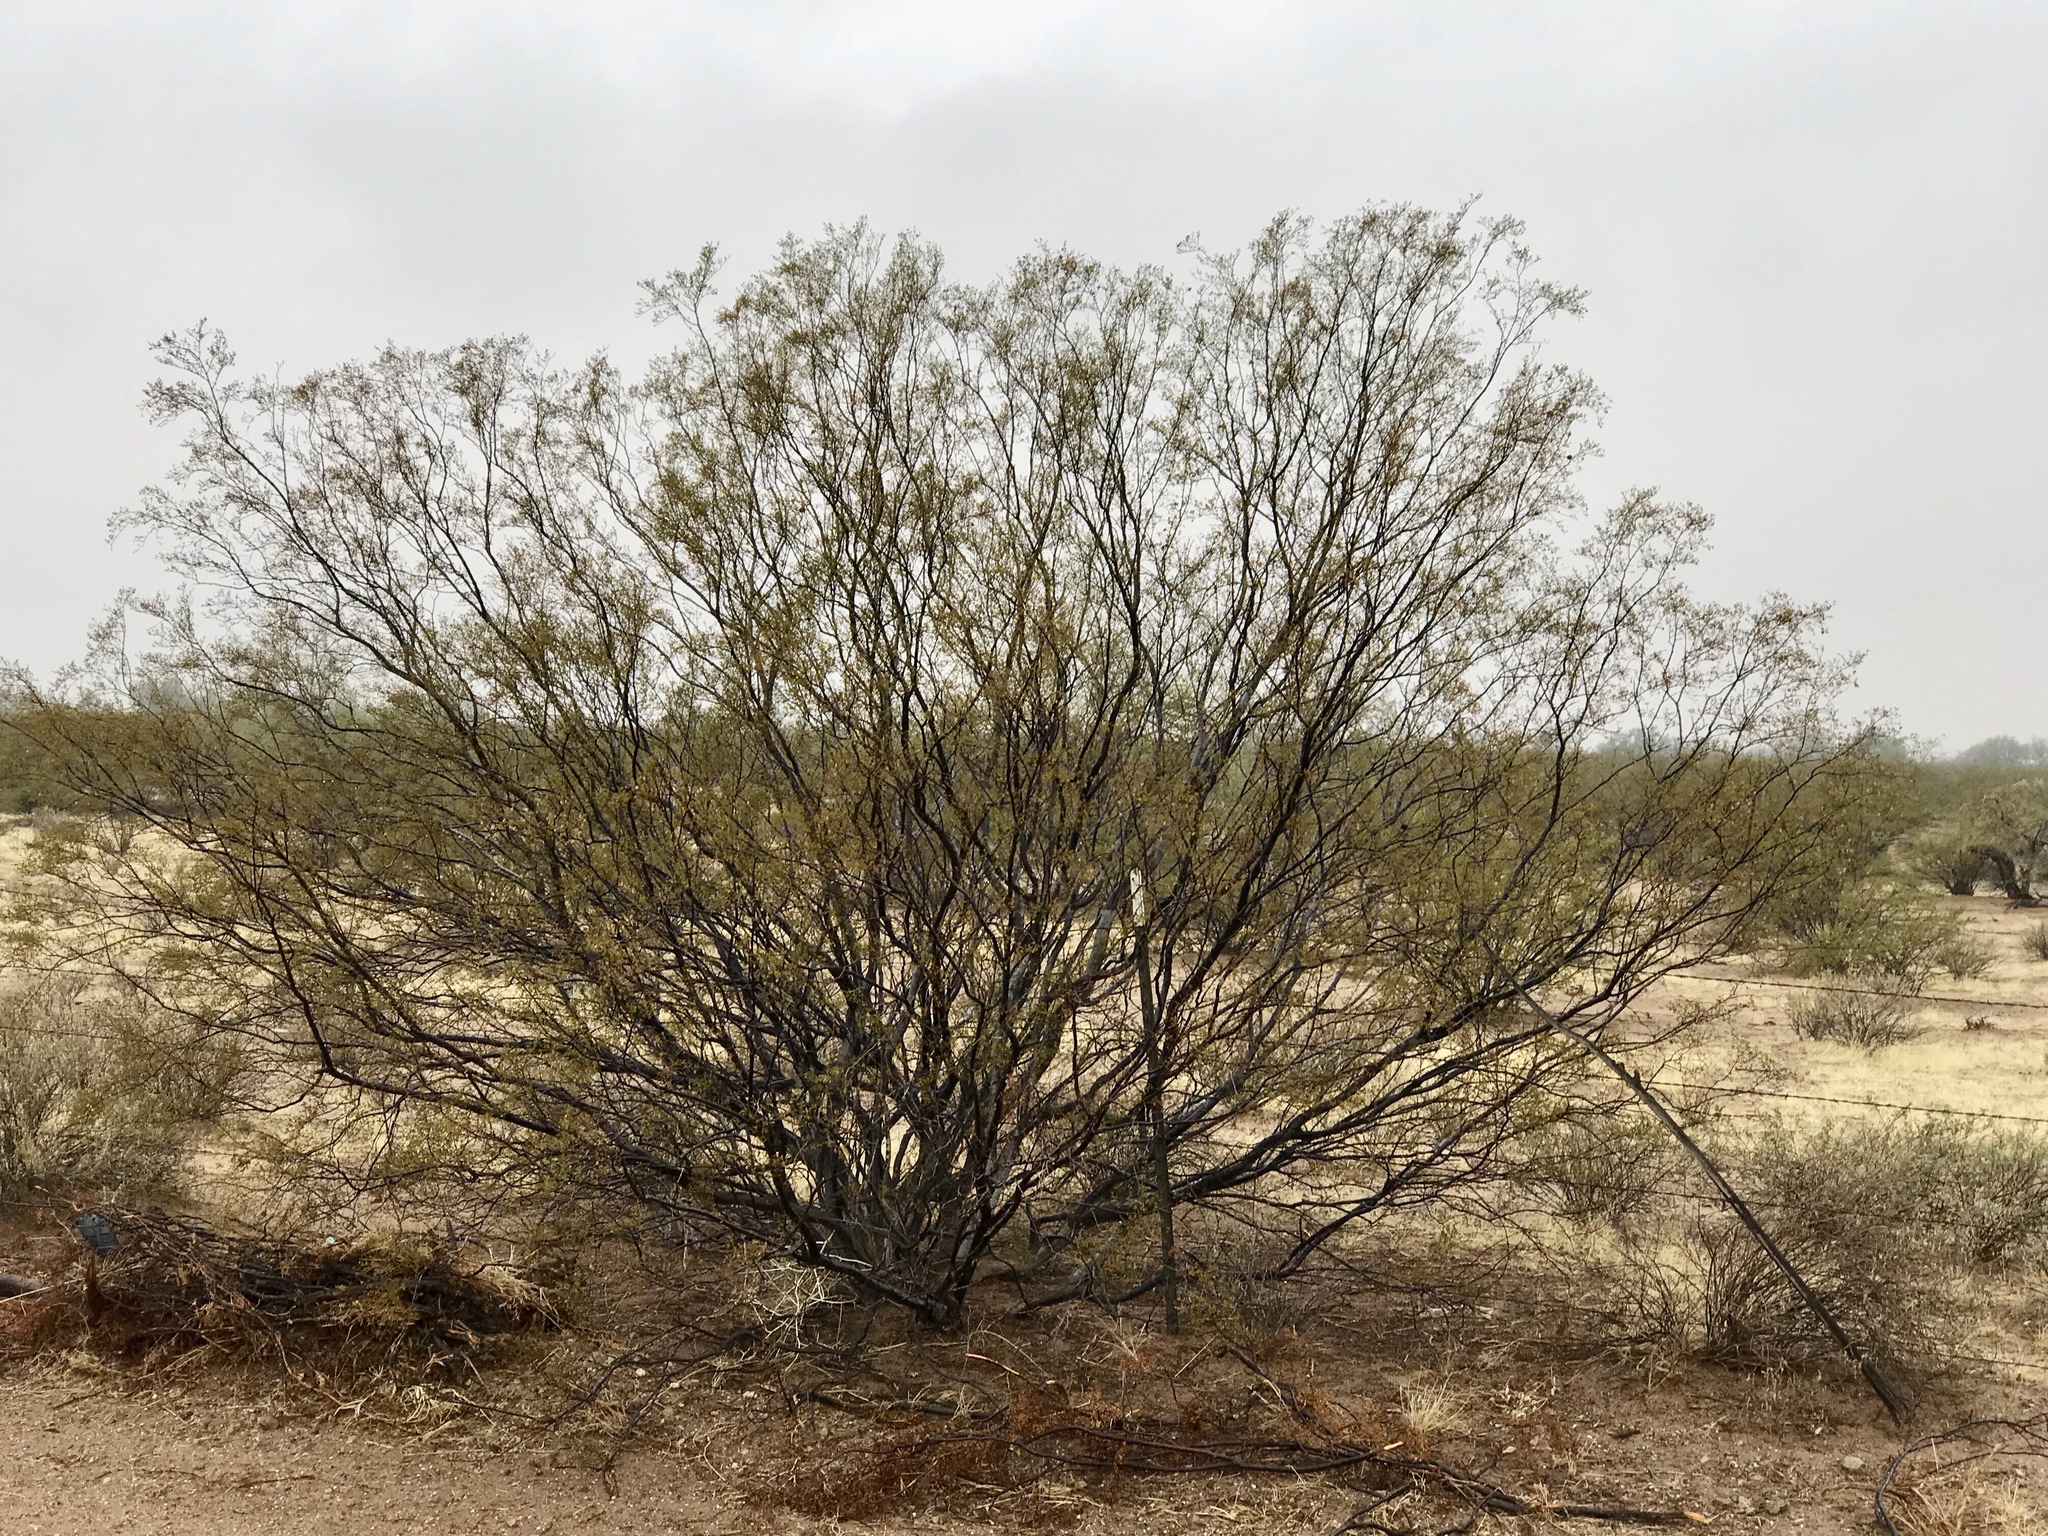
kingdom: Plantae
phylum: Tracheophyta
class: Magnoliopsida
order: Zygophyllales
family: Zygophyllaceae
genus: Larrea
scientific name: Larrea tridentata
